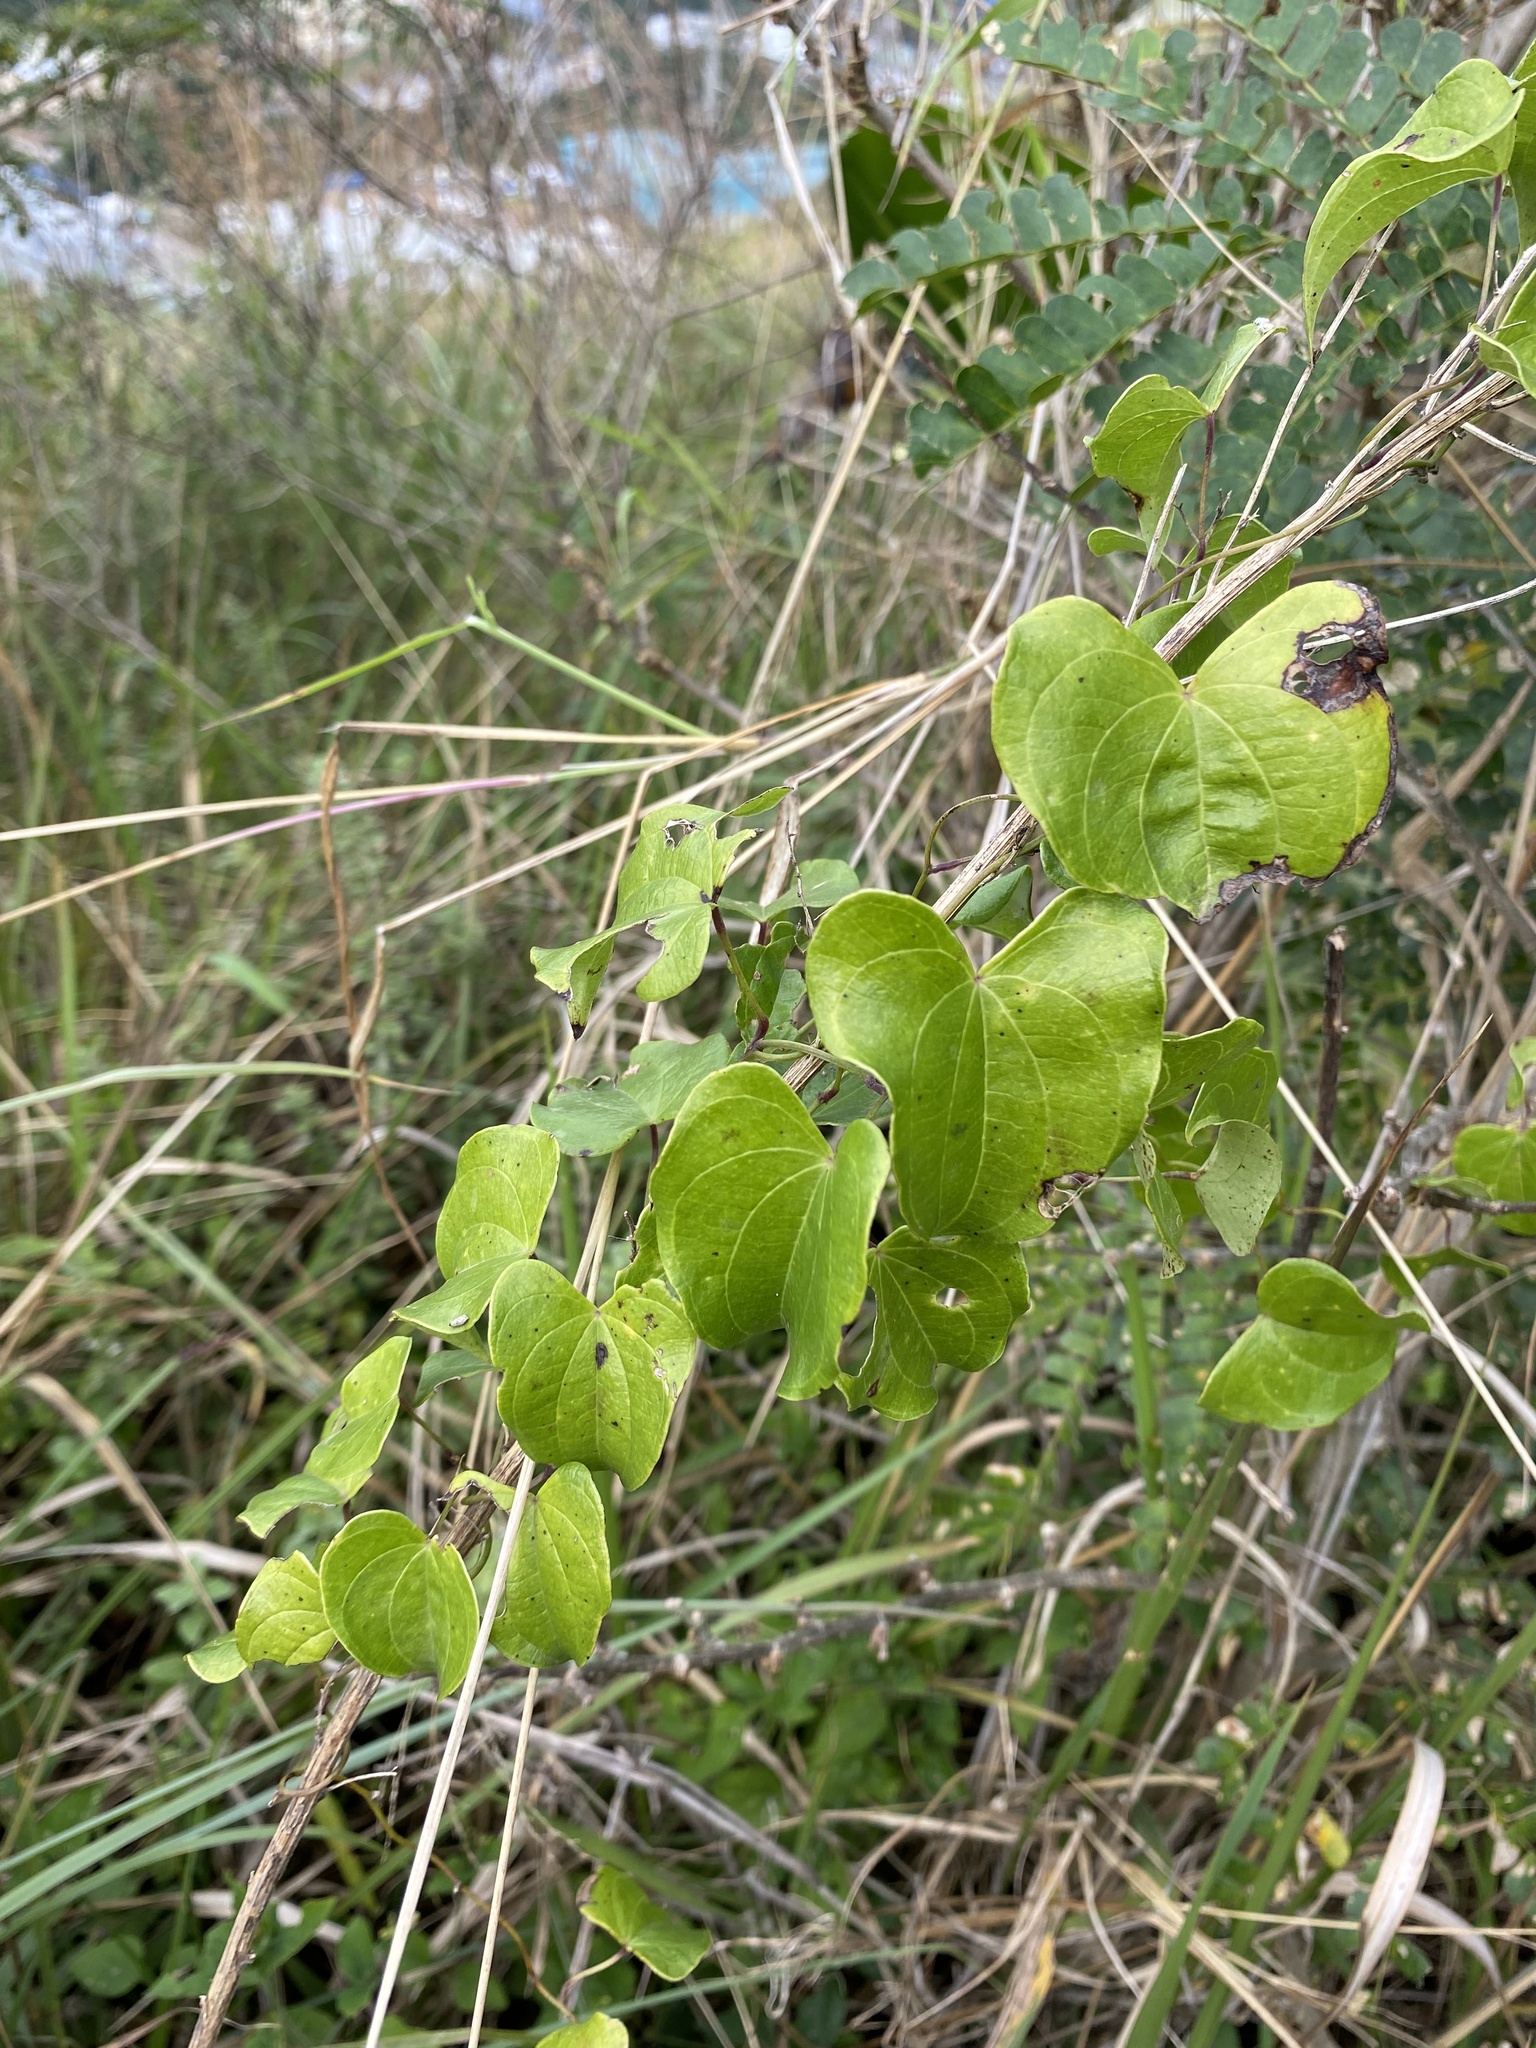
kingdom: Plantae
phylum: Tracheophyta
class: Liliopsida
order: Dioscoreales
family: Dioscoreaceae
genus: Dioscorea
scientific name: Dioscorea cotinifolia
